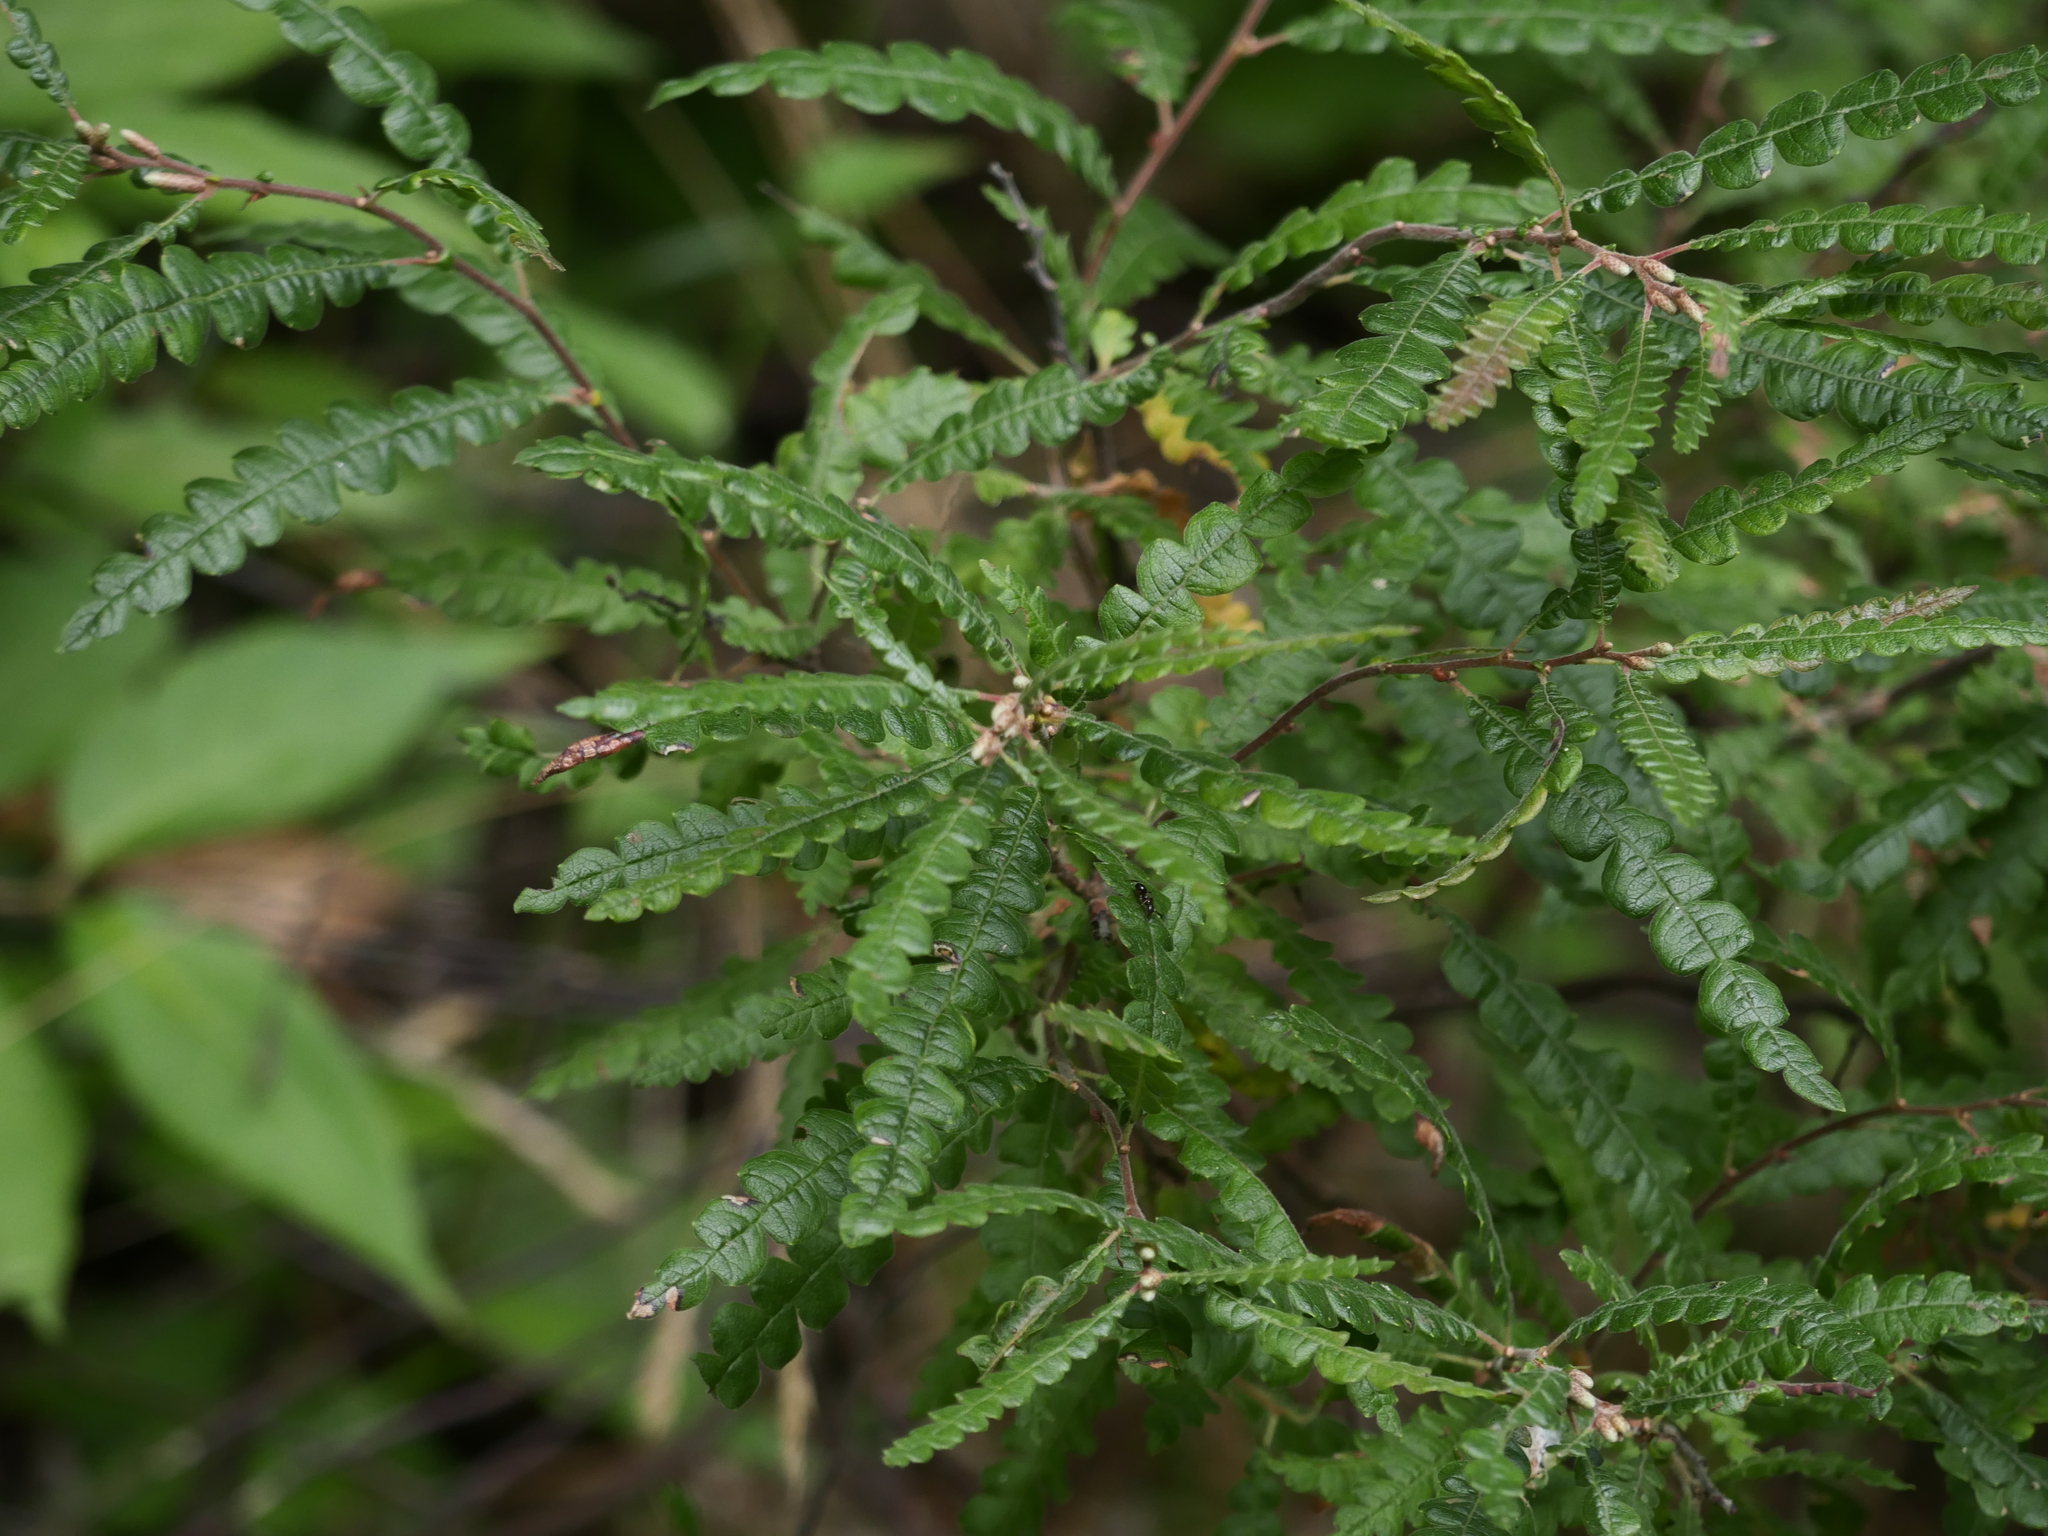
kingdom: Plantae
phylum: Tracheophyta
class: Magnoliopsida
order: Fagales
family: Myricaceae
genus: Comptonia
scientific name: Comptonia peregrina
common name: Sweet-fern
